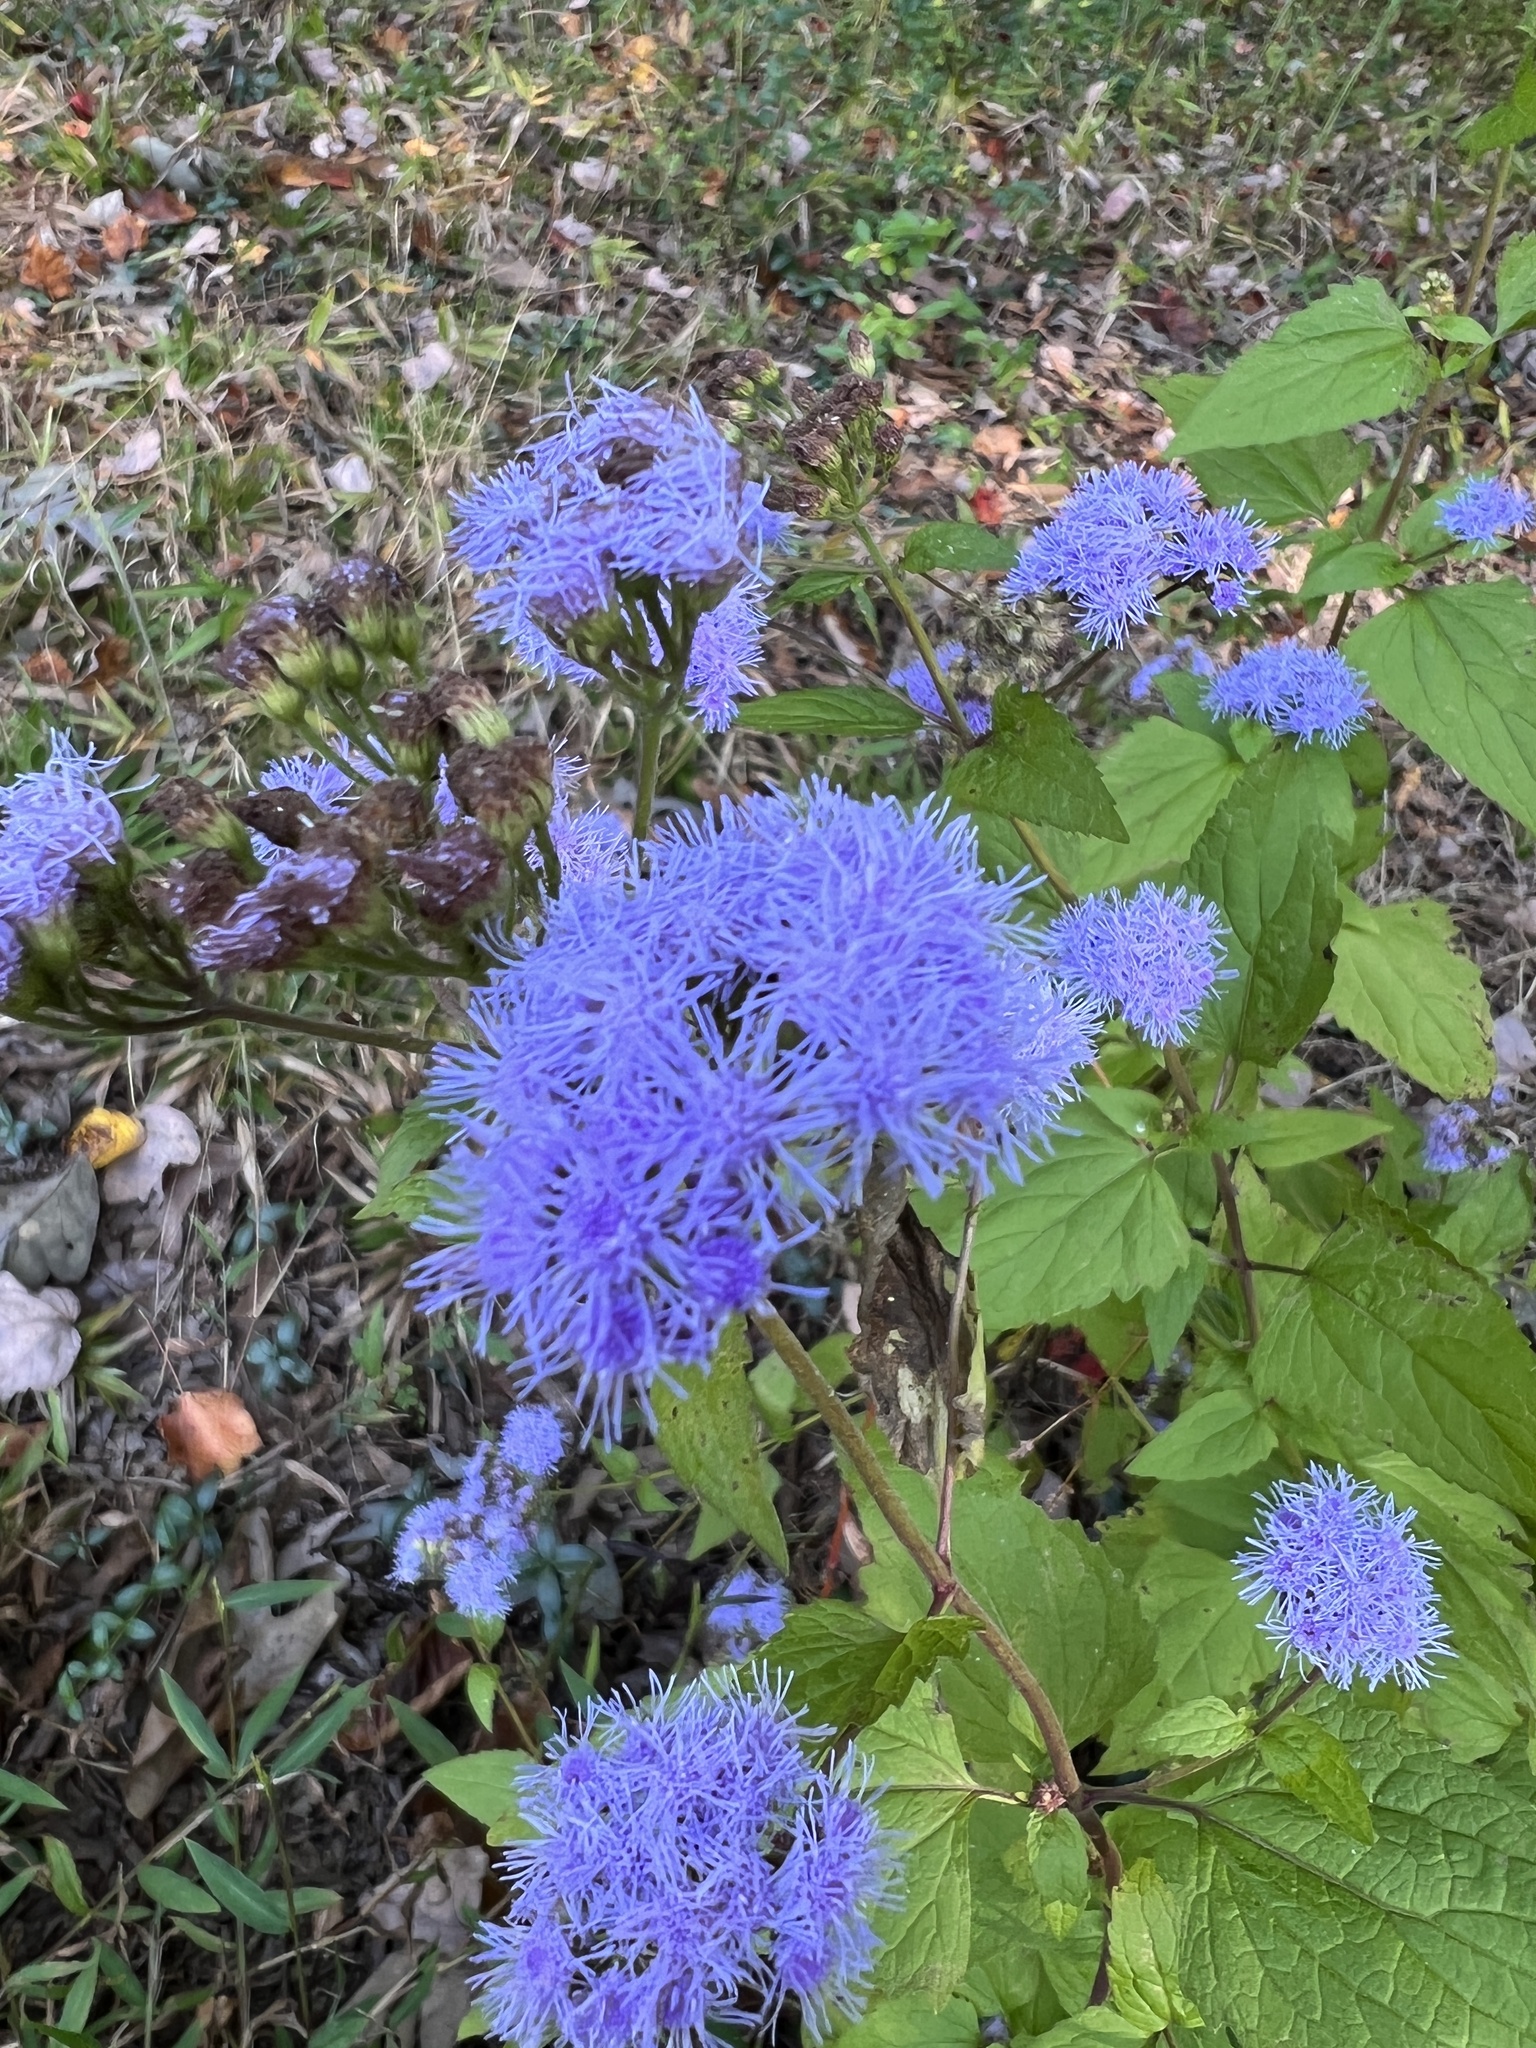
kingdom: Plantae
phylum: Tracheophyta
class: Magnoliopsida
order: Asterales
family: Asteraceae
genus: Conoclinium
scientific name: Conoclinium coelestinum
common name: Blue mistflower
